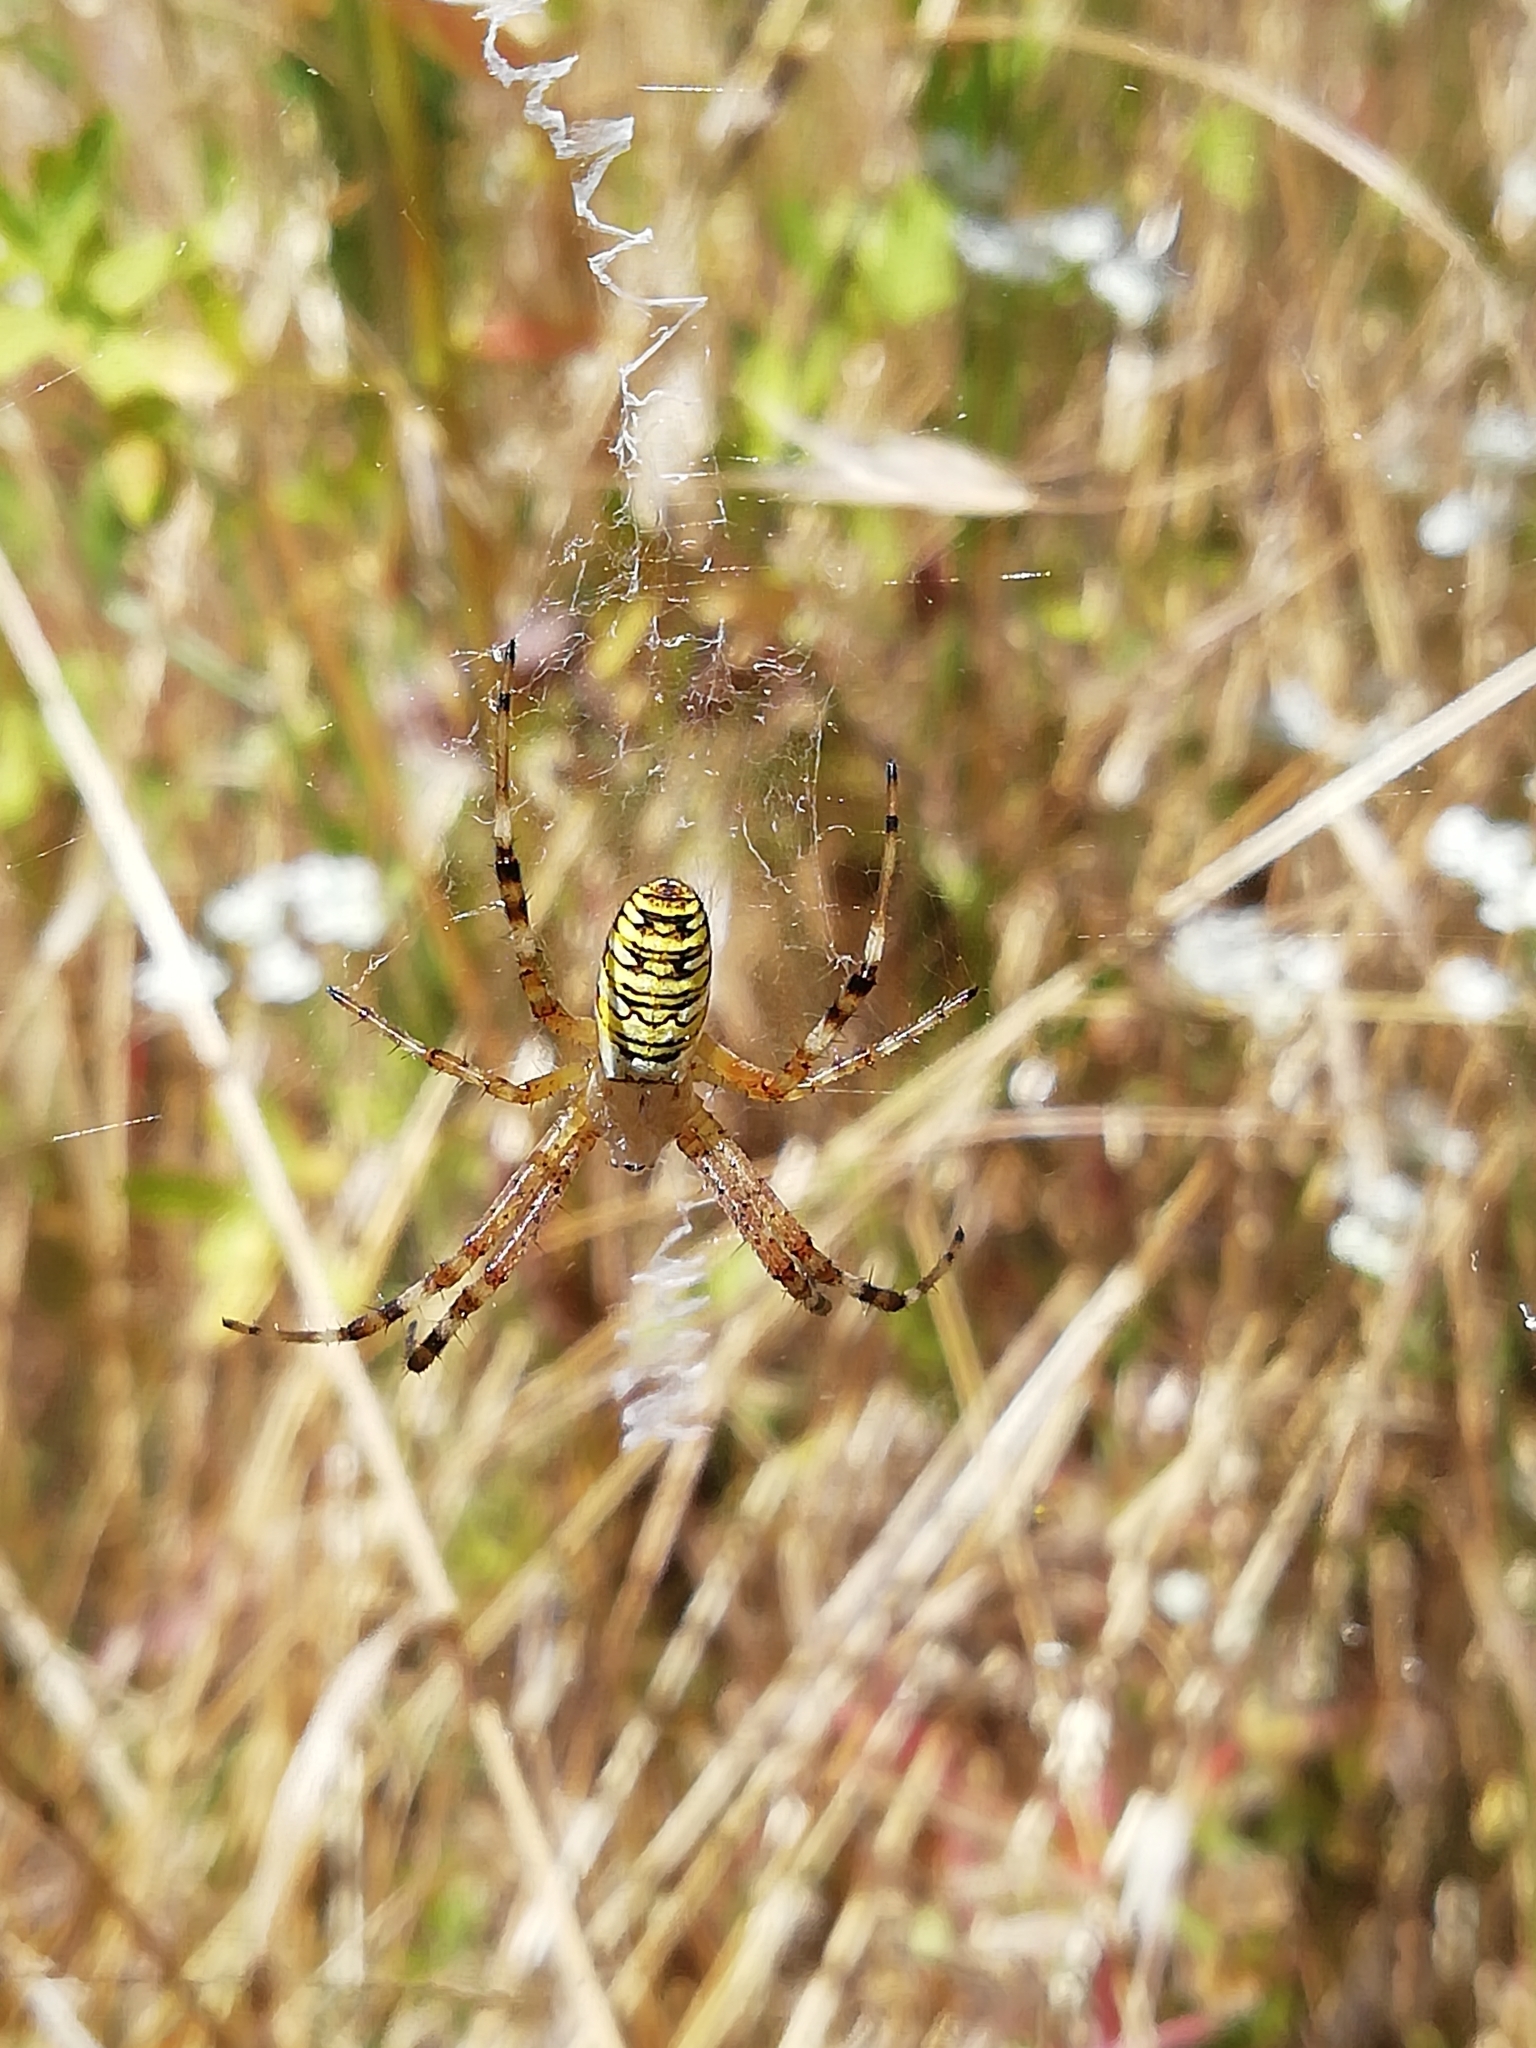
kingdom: Animalia
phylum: Arthropoda
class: Arachnida
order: Araneae
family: Araneidae
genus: Argiope
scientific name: Argiope bruennichi
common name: Wasp spider
